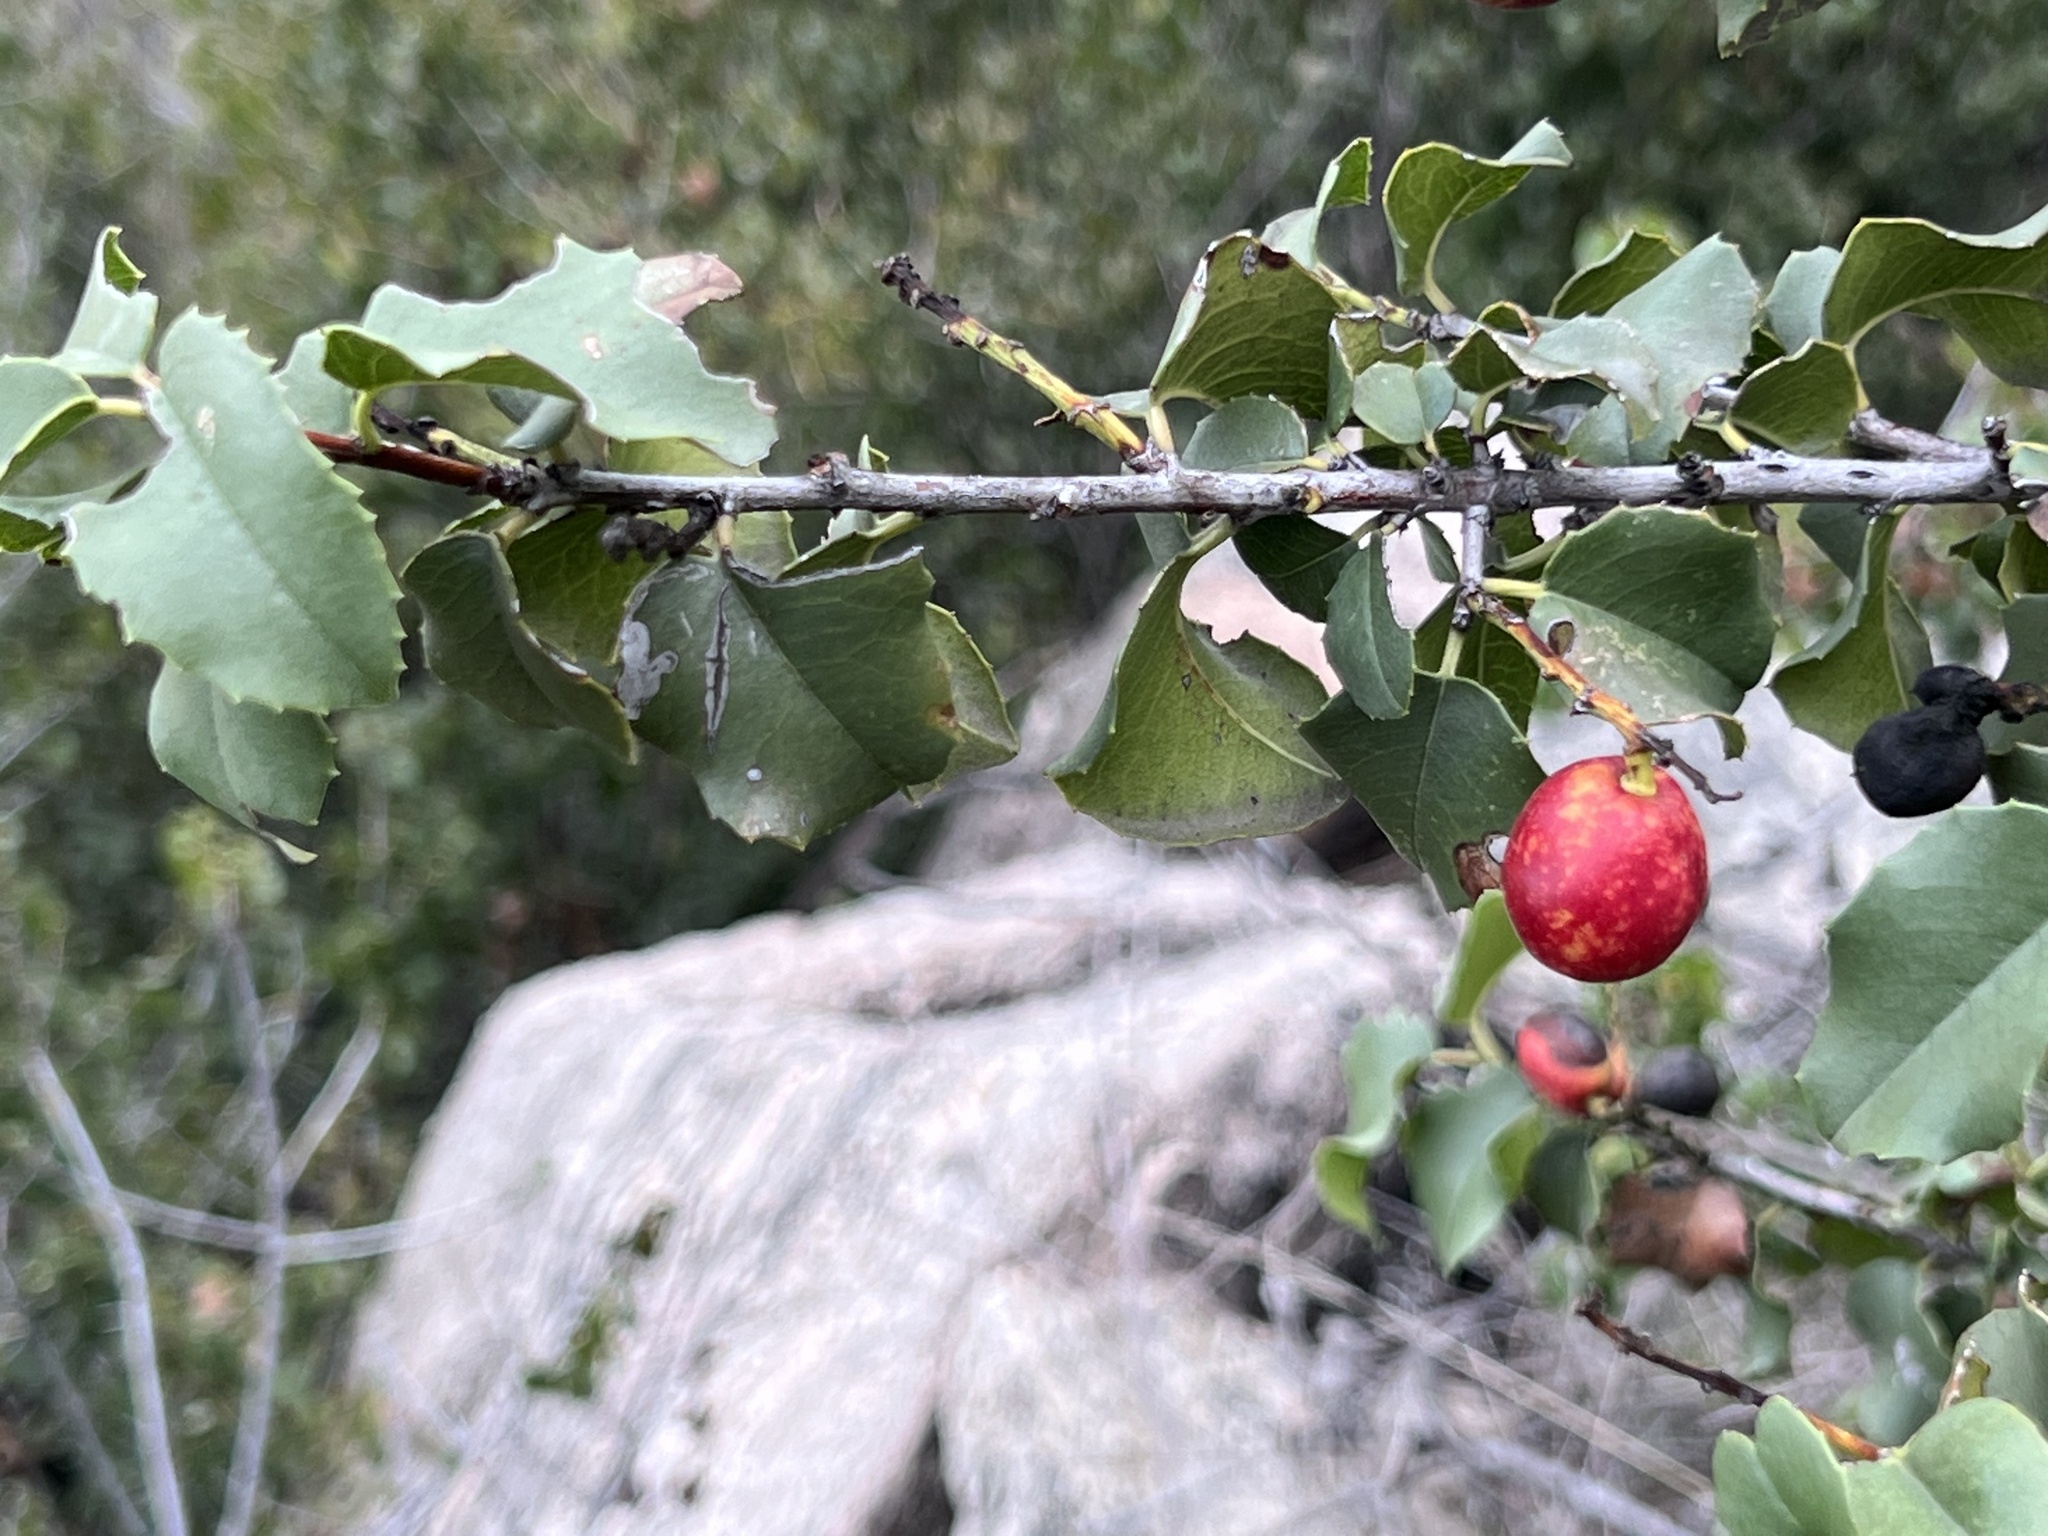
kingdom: Plantae
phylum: Tracheophyta
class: Magnoliopsida
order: Rosales
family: Rosaceae
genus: Prunus
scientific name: Prunus ilicifolia
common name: Hollyleaf cherry
